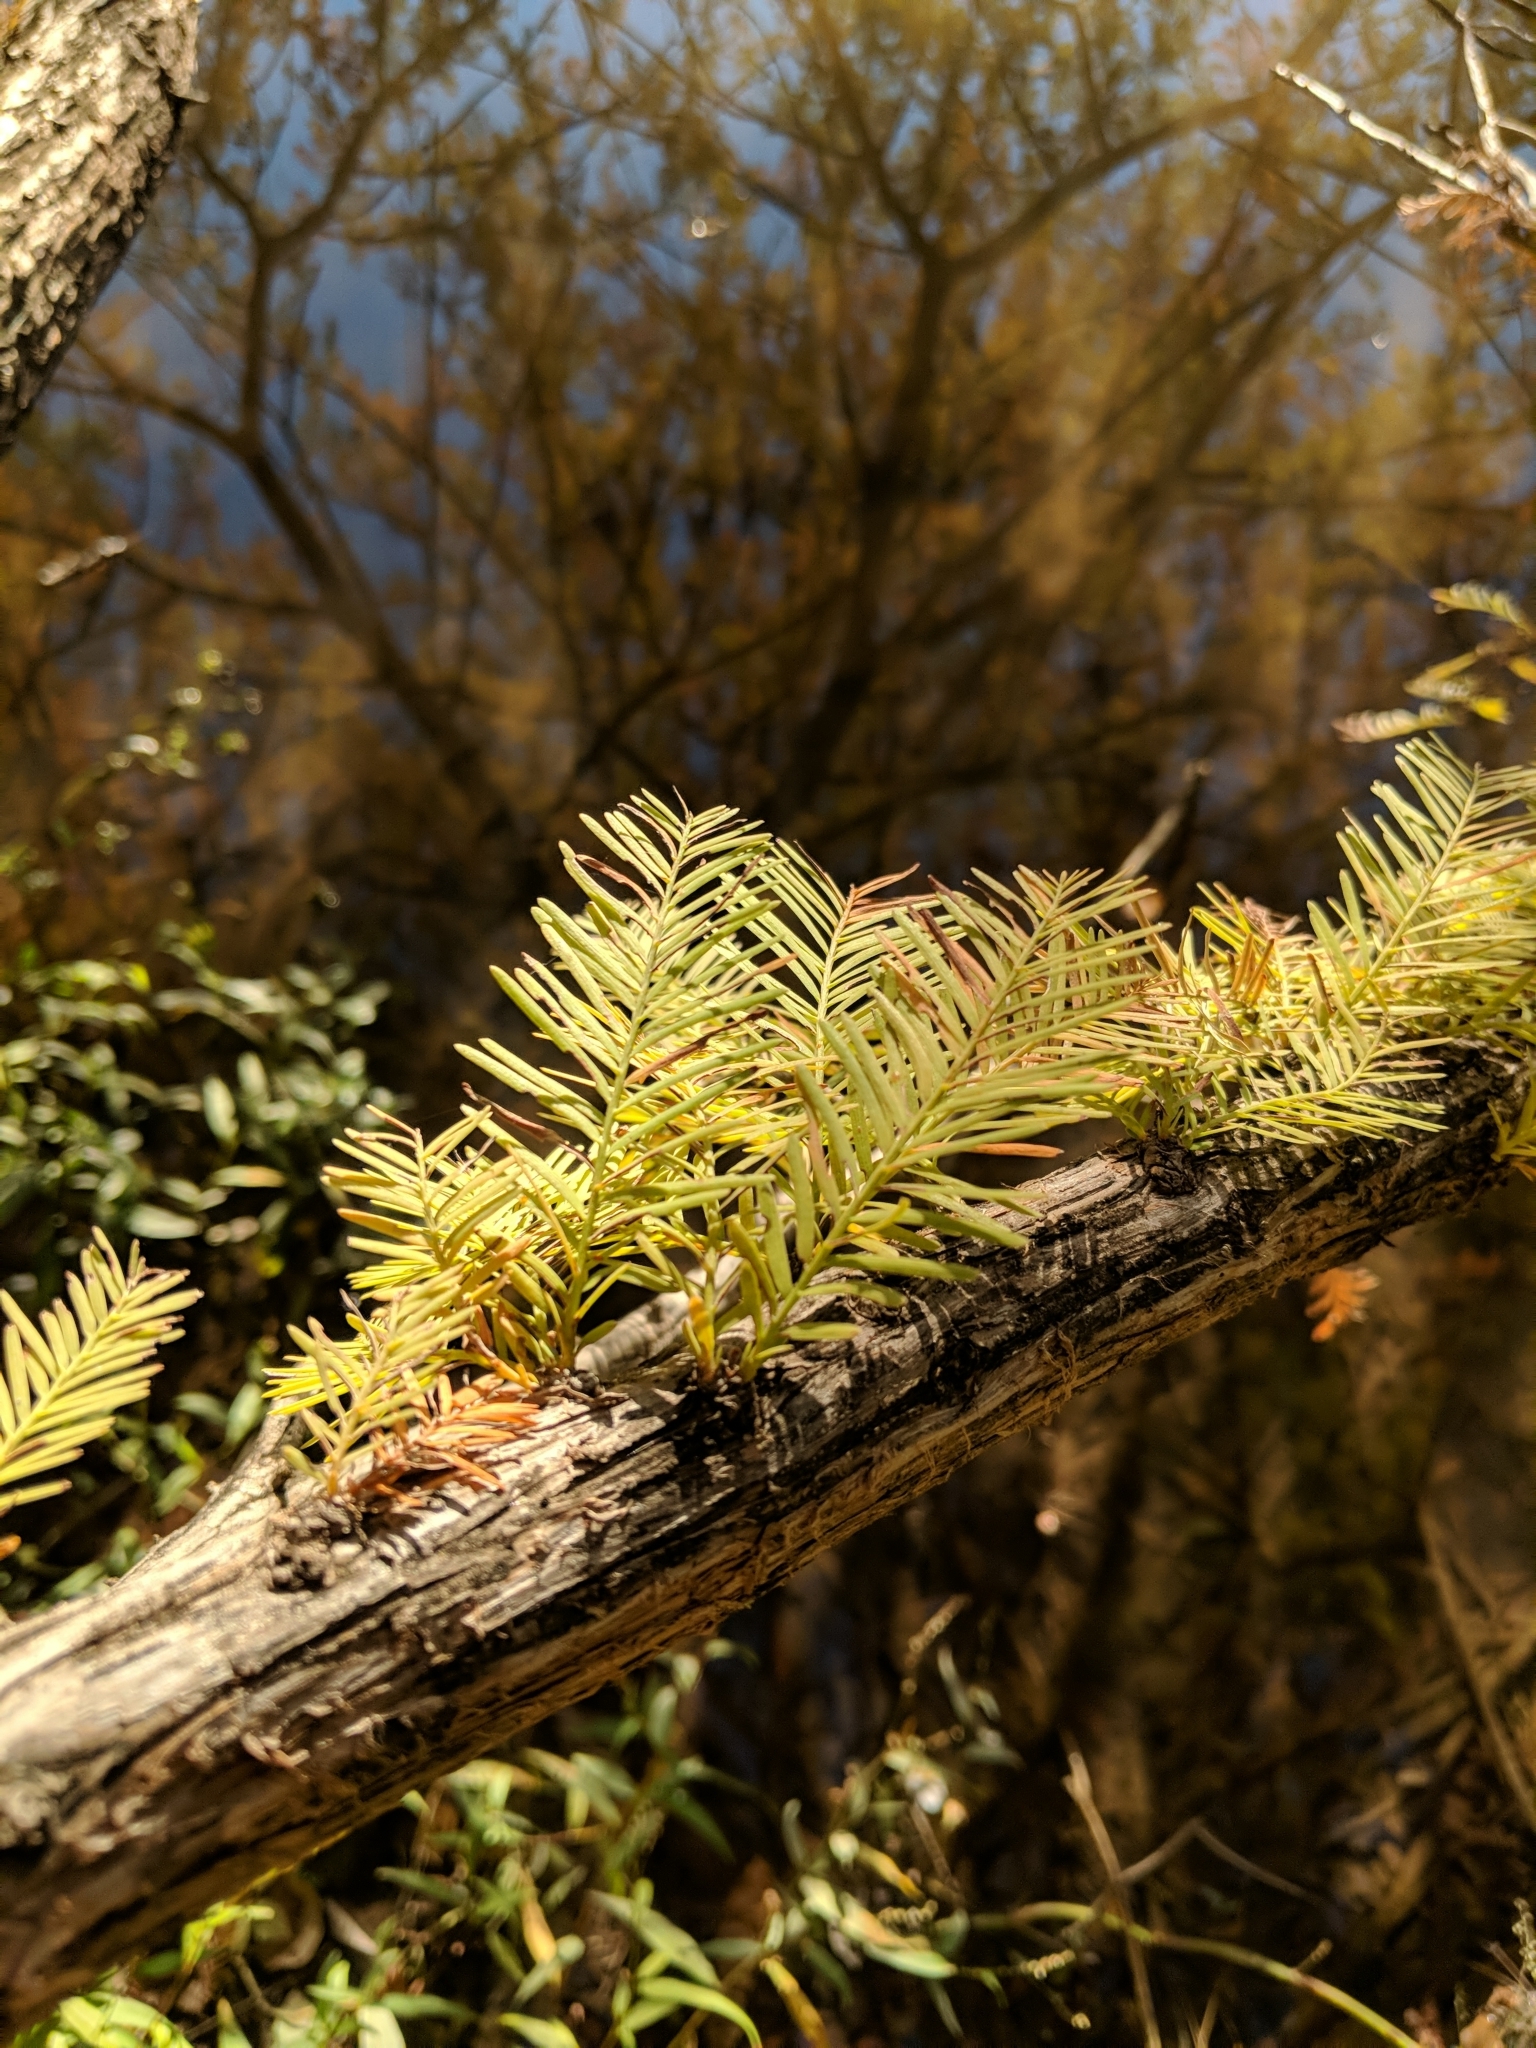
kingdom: Plantae
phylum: Tracheophyta
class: Pinopsida
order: Pinales
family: Cupressaceae
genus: Taxodium
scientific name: Taxodium distichum
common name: Bald cypress
